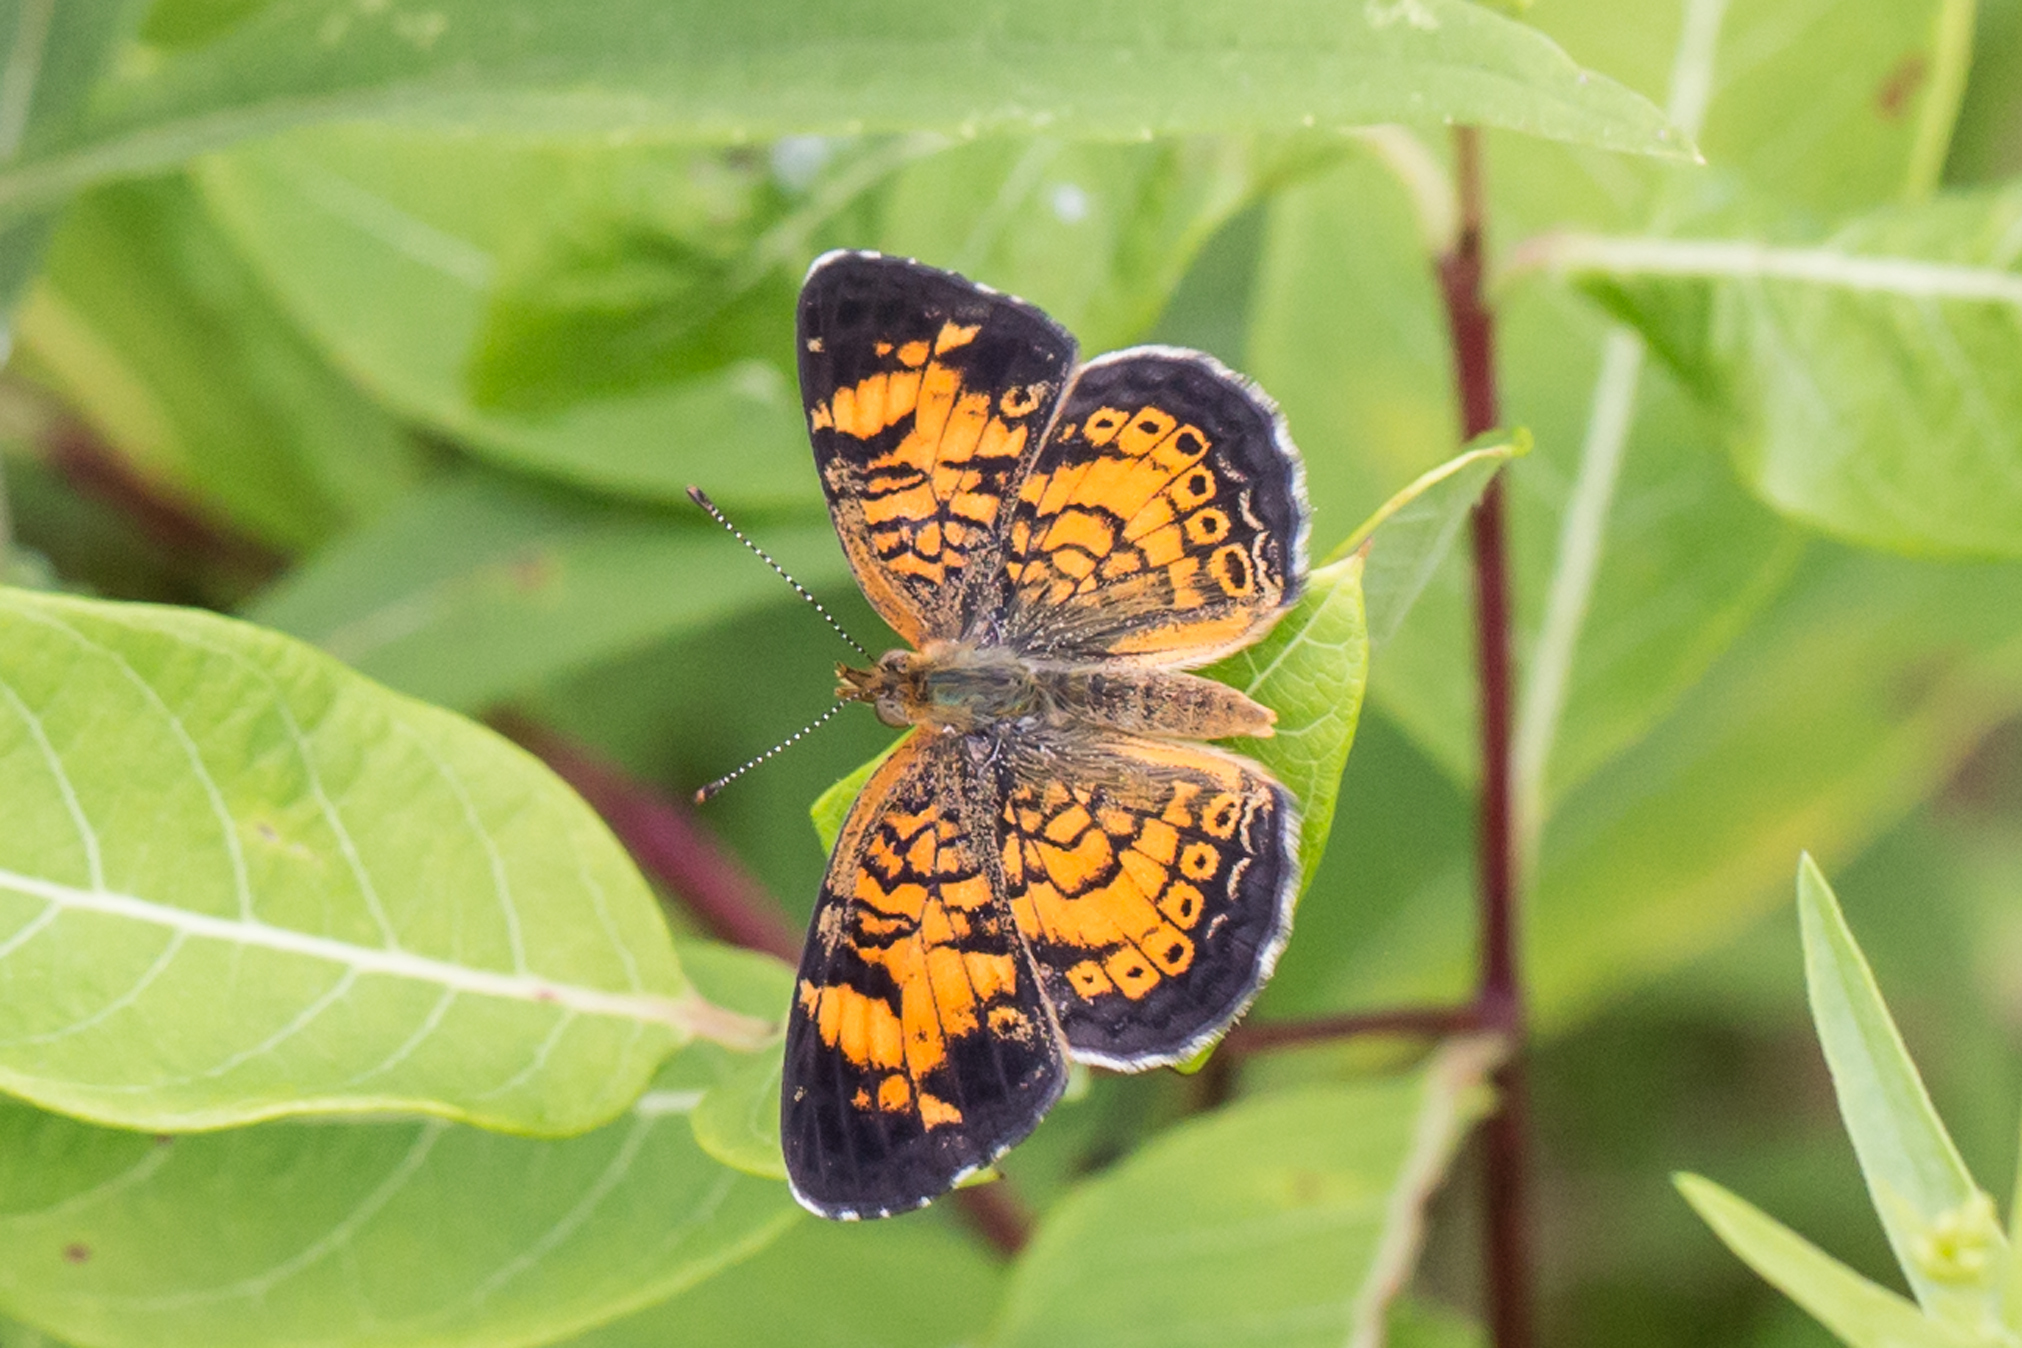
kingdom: Animalia
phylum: Arthropoda
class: Insecta
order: Lepidoptera
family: Nymphalidae
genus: Phyciodes
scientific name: Phyciodes tharos
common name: Pearl crescent
